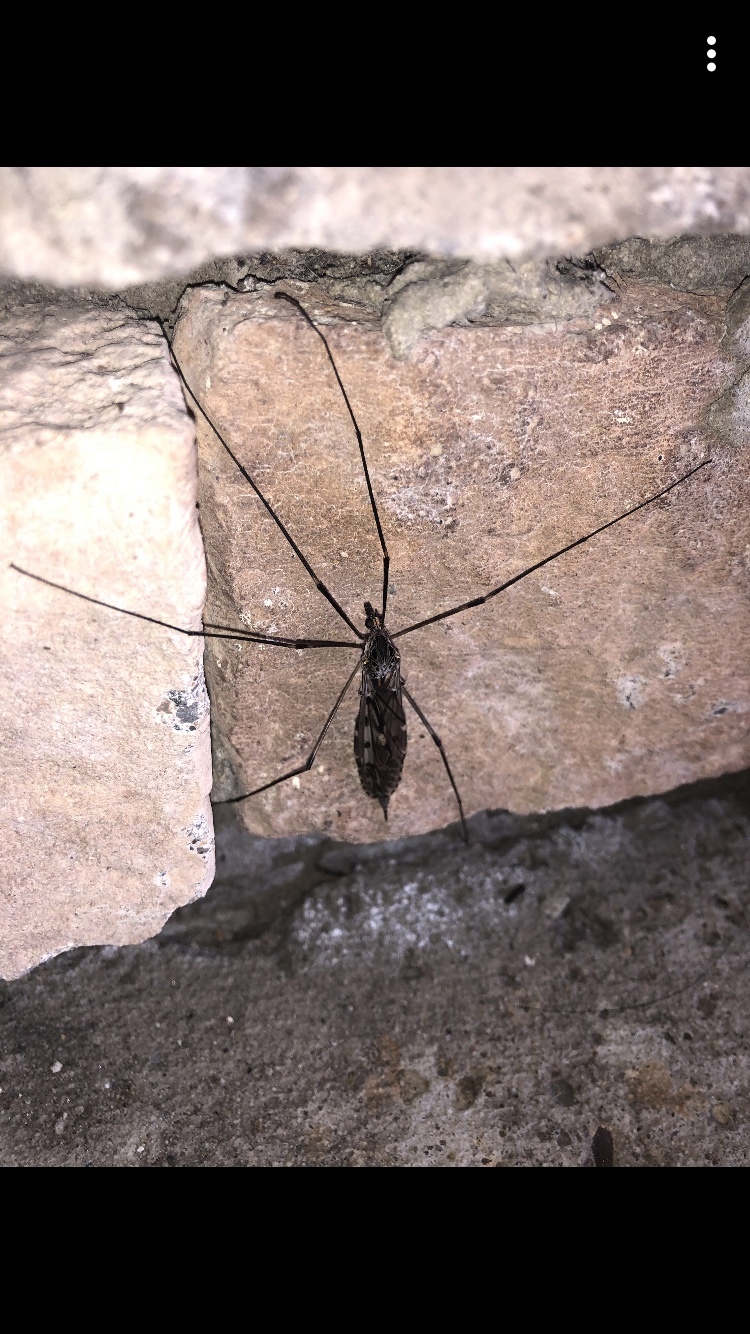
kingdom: Animalia
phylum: Arthropoda
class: Insecta
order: Diptera
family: Tipulidae
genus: Tipula
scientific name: Tipula abdominalis
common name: Giant crane fly
